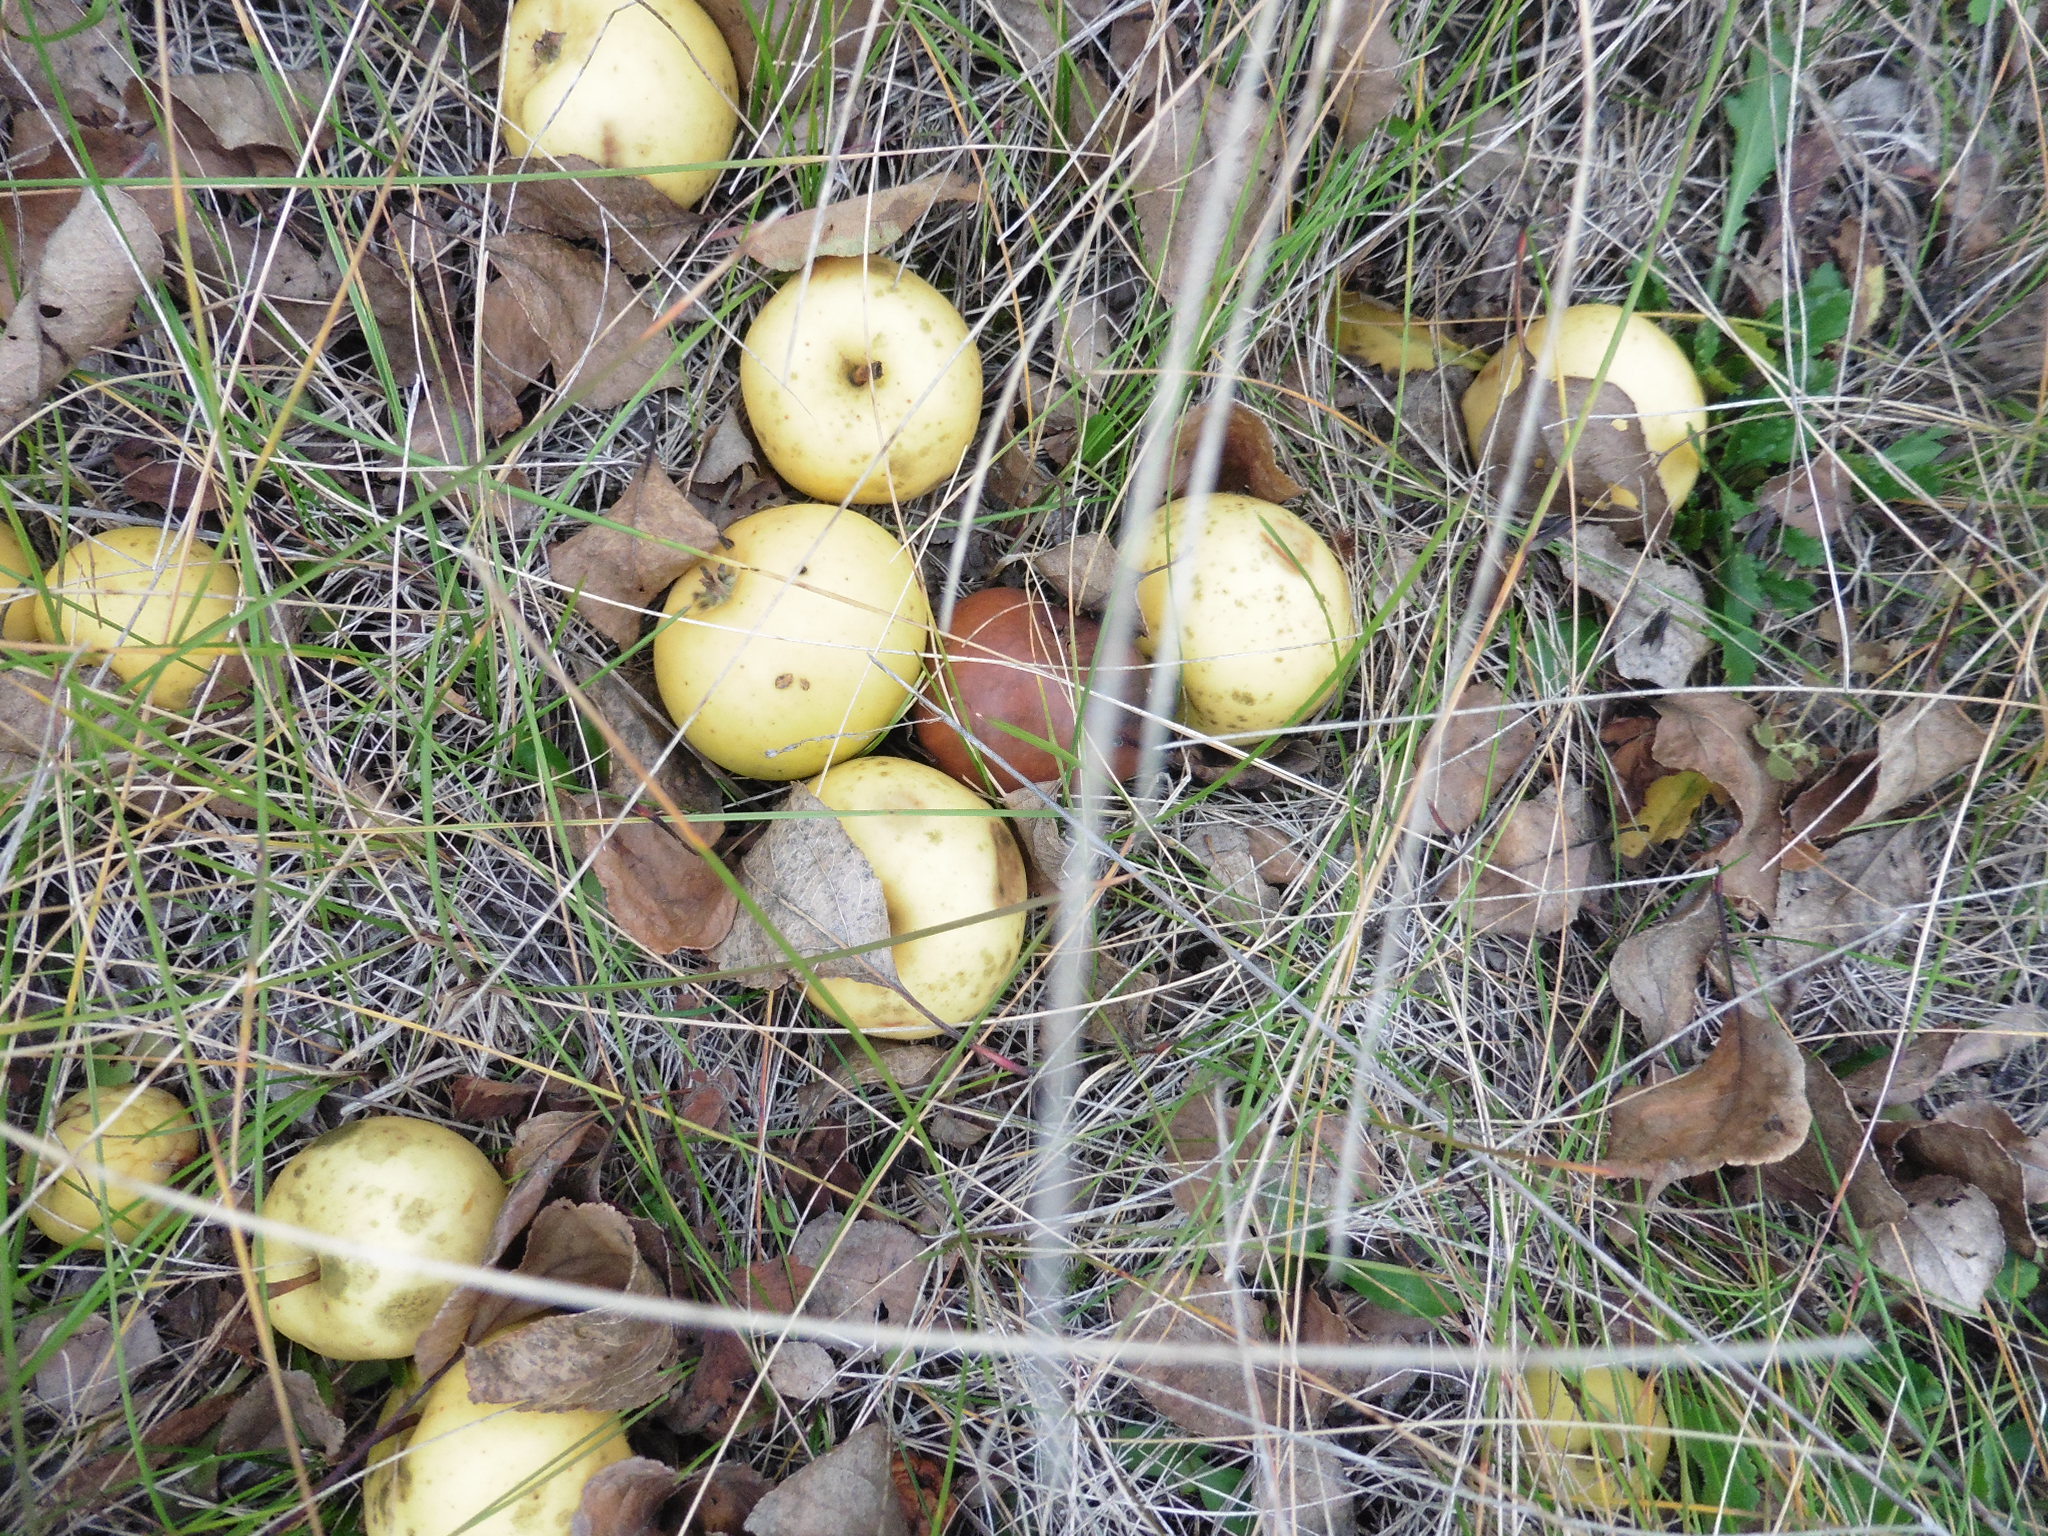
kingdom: Plantae
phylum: Tracheophyta
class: Magnoliopsida
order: Rosales
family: Rosaceae
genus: Malus
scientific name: Malus sylvestris
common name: Crab apple
